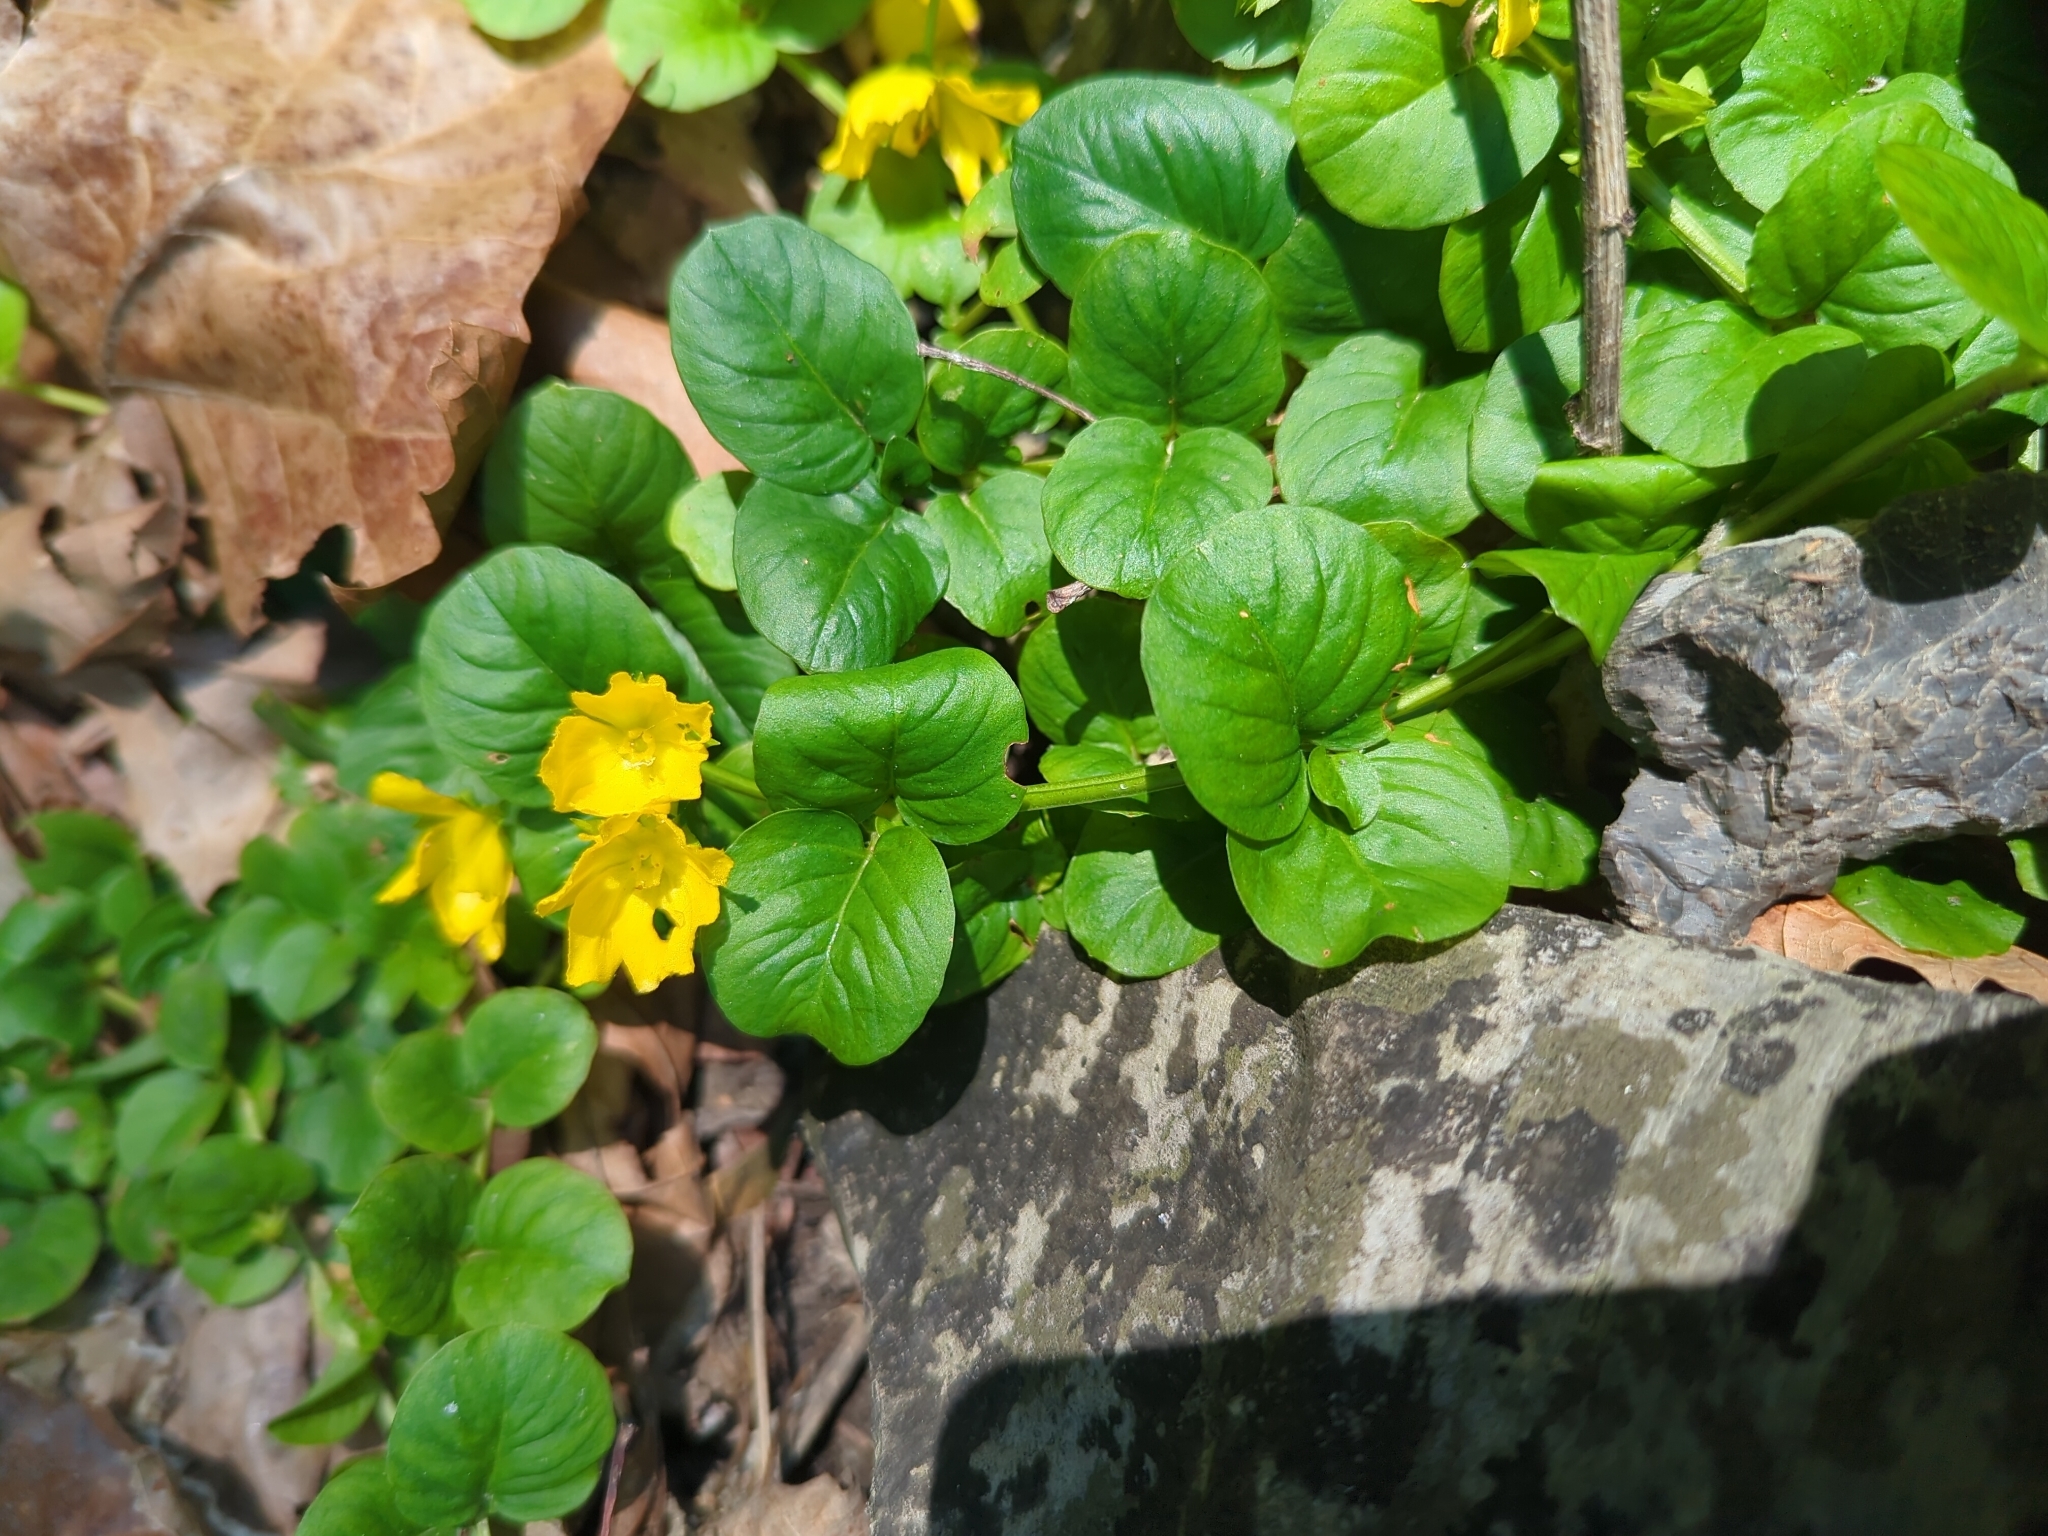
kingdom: Plantae
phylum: Tracheophyta
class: Magnoliopsida
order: Ericales
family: Primulaceae
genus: Lysimachia
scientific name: Lysimachia nummularia
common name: Moneywort
